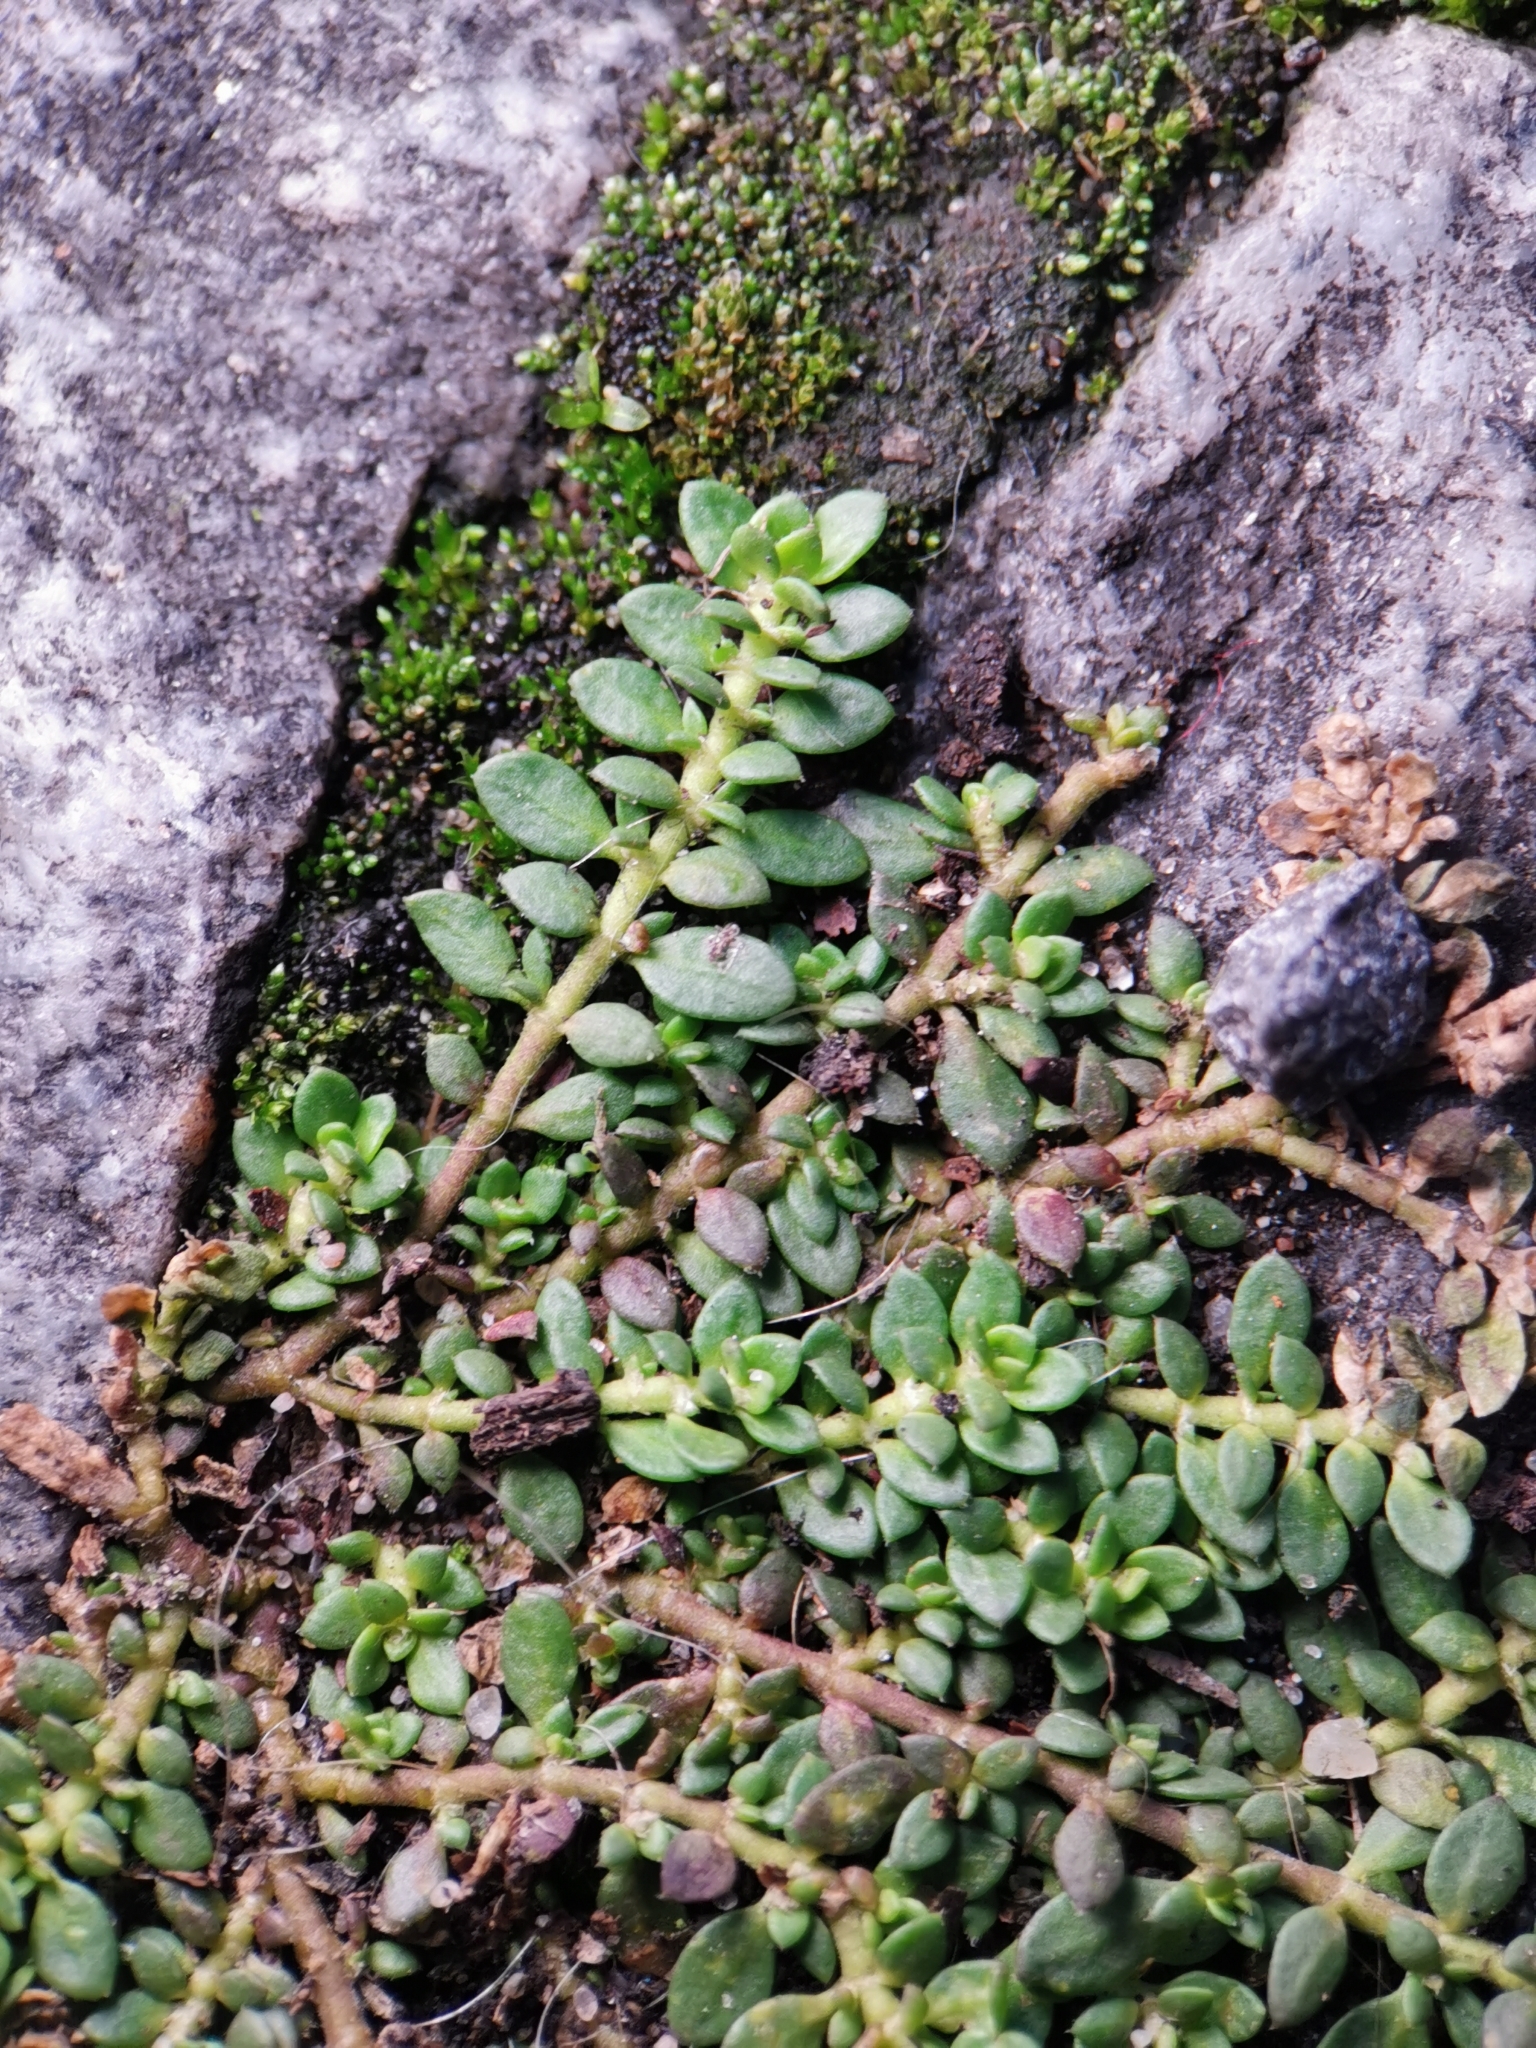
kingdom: Plantae
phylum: Tracheophyta
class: Magnoliopsida
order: Caryophyllales
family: Caryophyllaceae
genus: Herniaria
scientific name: Herniaria glabra
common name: Smooth rupturewort
